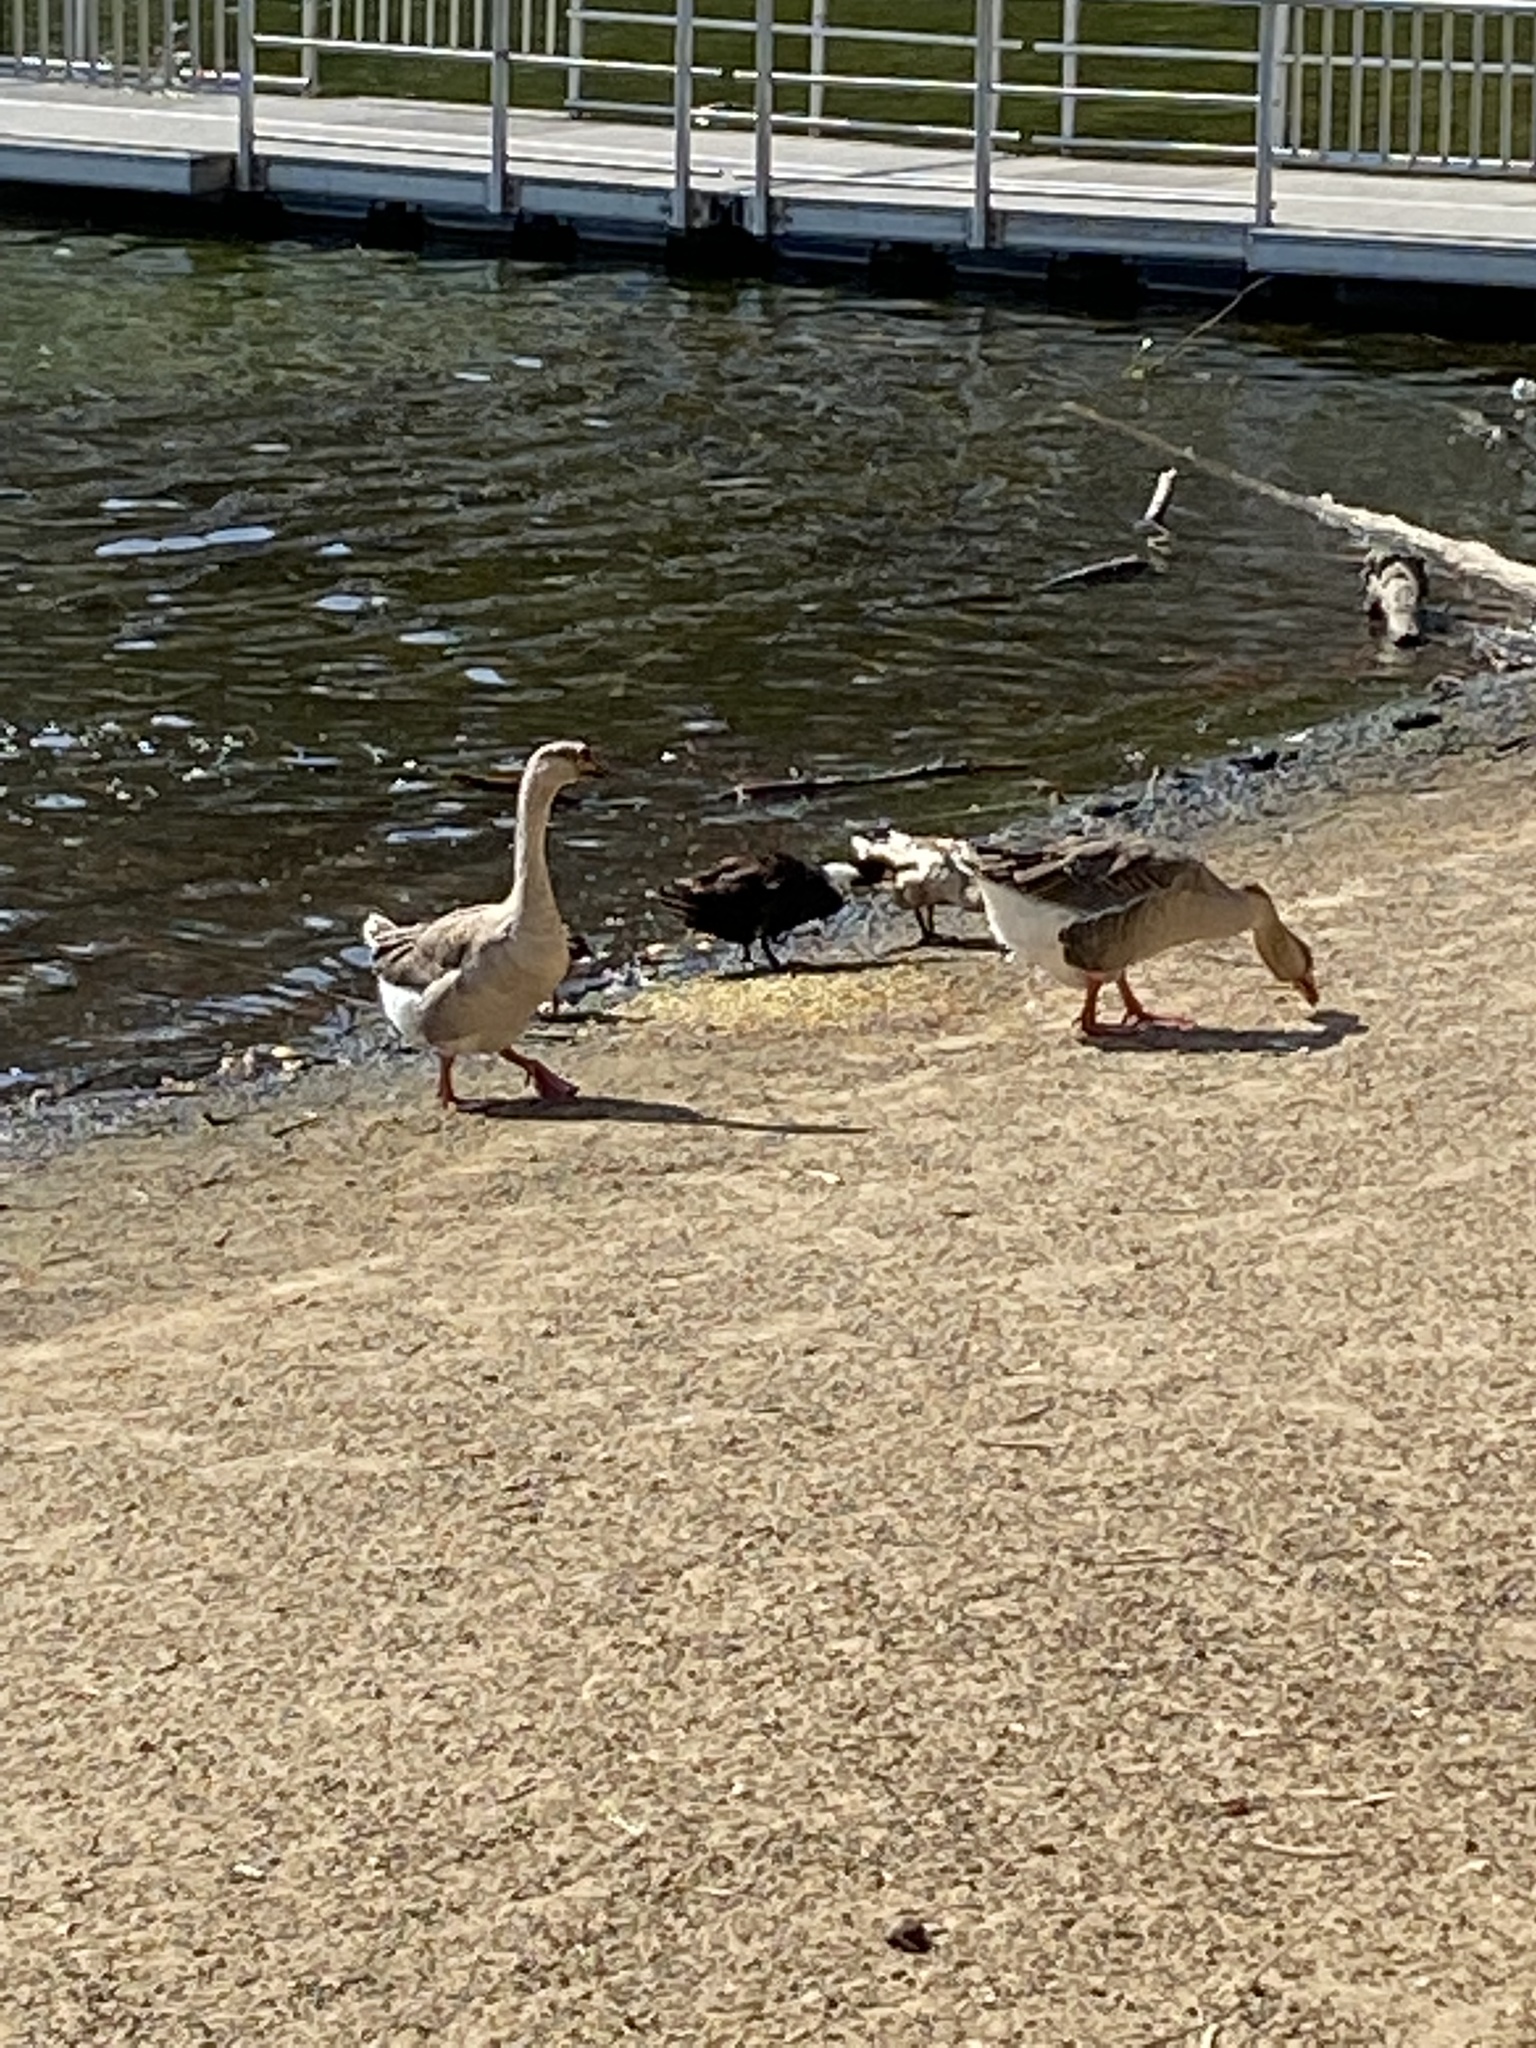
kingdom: Animalia
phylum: Chordata
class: Aves
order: Anseriformes
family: Anatidae
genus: Anser
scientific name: Anser
